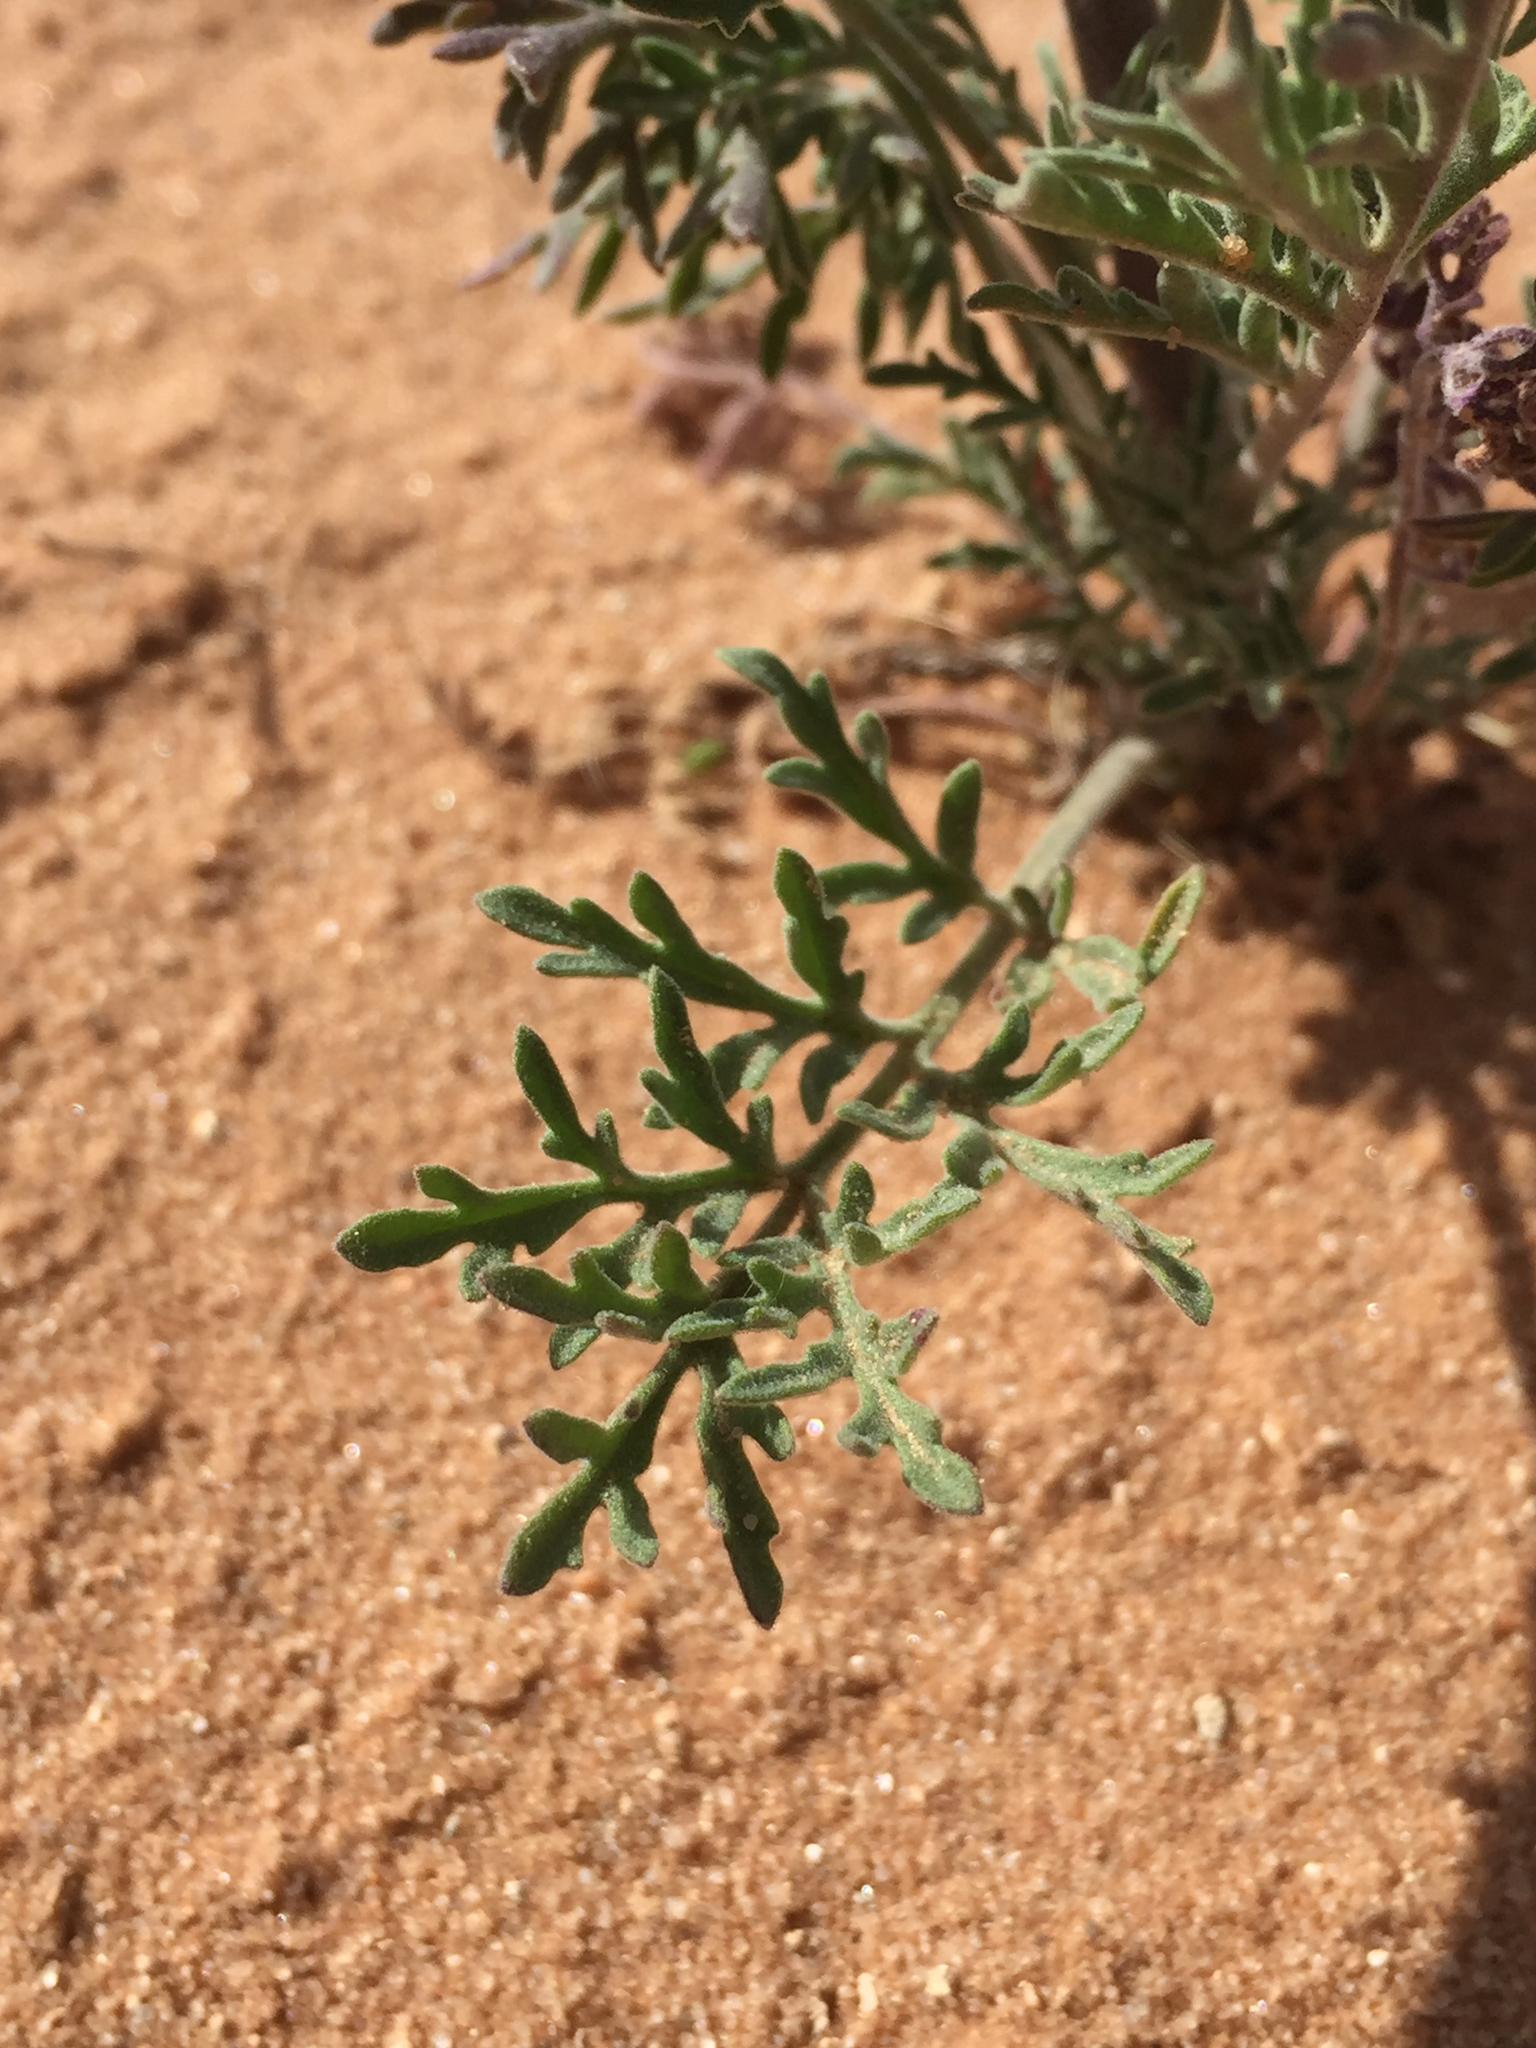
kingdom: Plantae
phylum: Tracheophyta
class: Magnoliopsida
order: Brassicales
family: Brassicaceae
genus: Descurainia
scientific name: Descurainia pinnata
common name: Western tansy mustard
